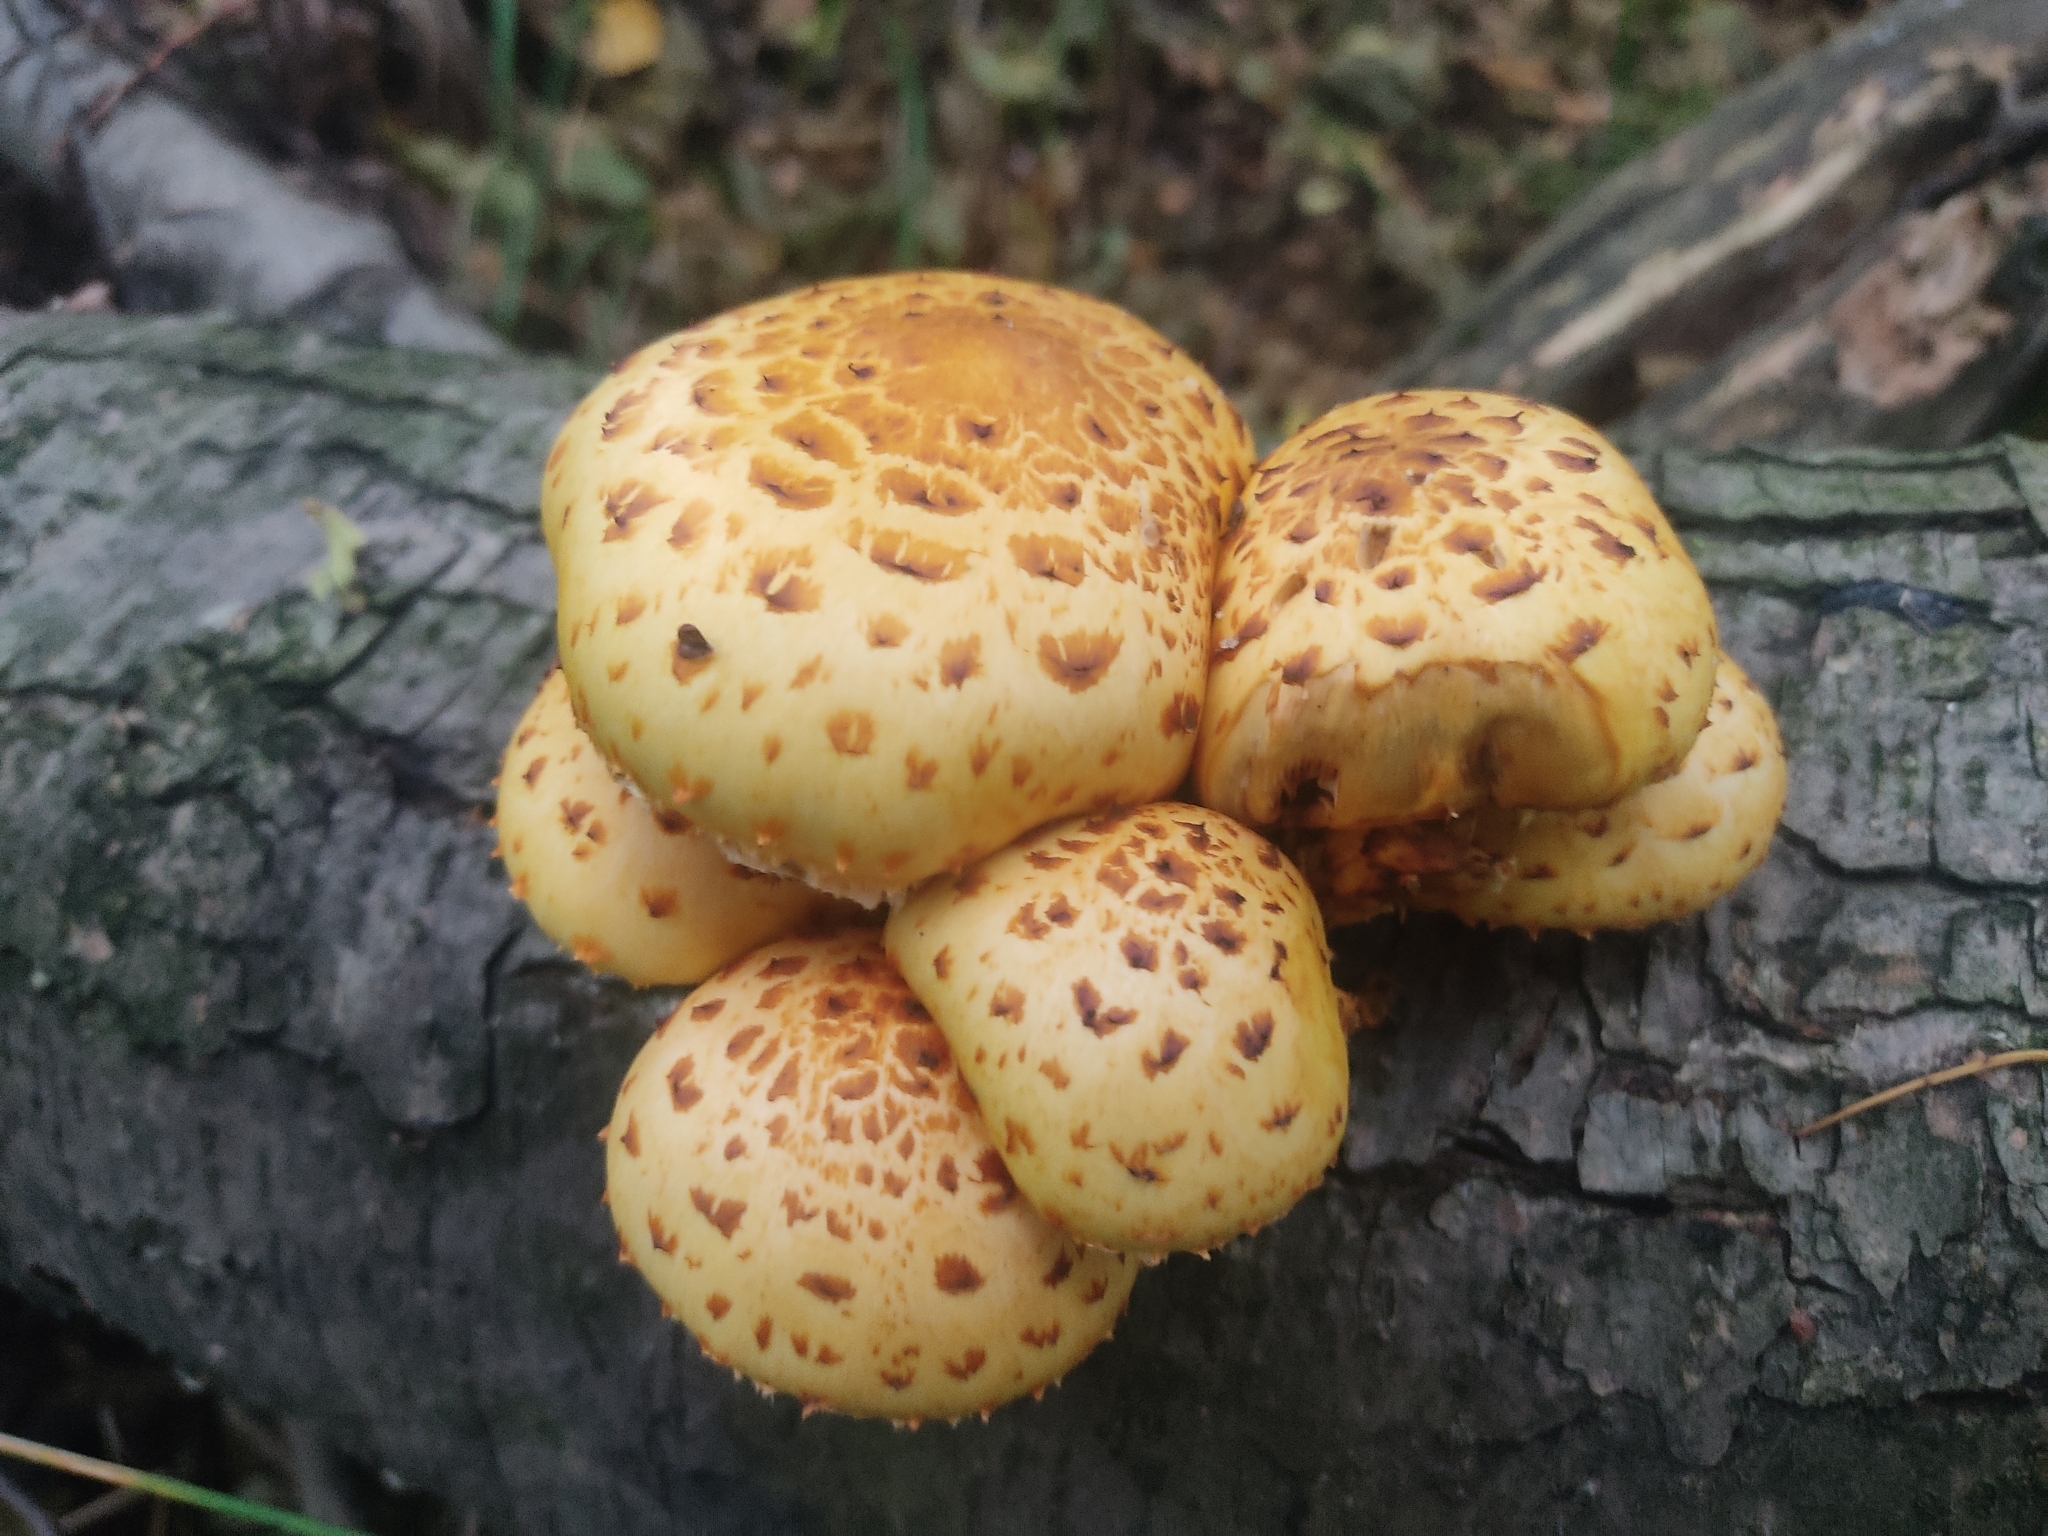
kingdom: Fungi
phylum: Basidiomycota
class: Agaricomycetes
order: Agaricales
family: Strophariaceae
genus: Pholiota
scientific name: Pholiota aurivella
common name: Golden scalycap
